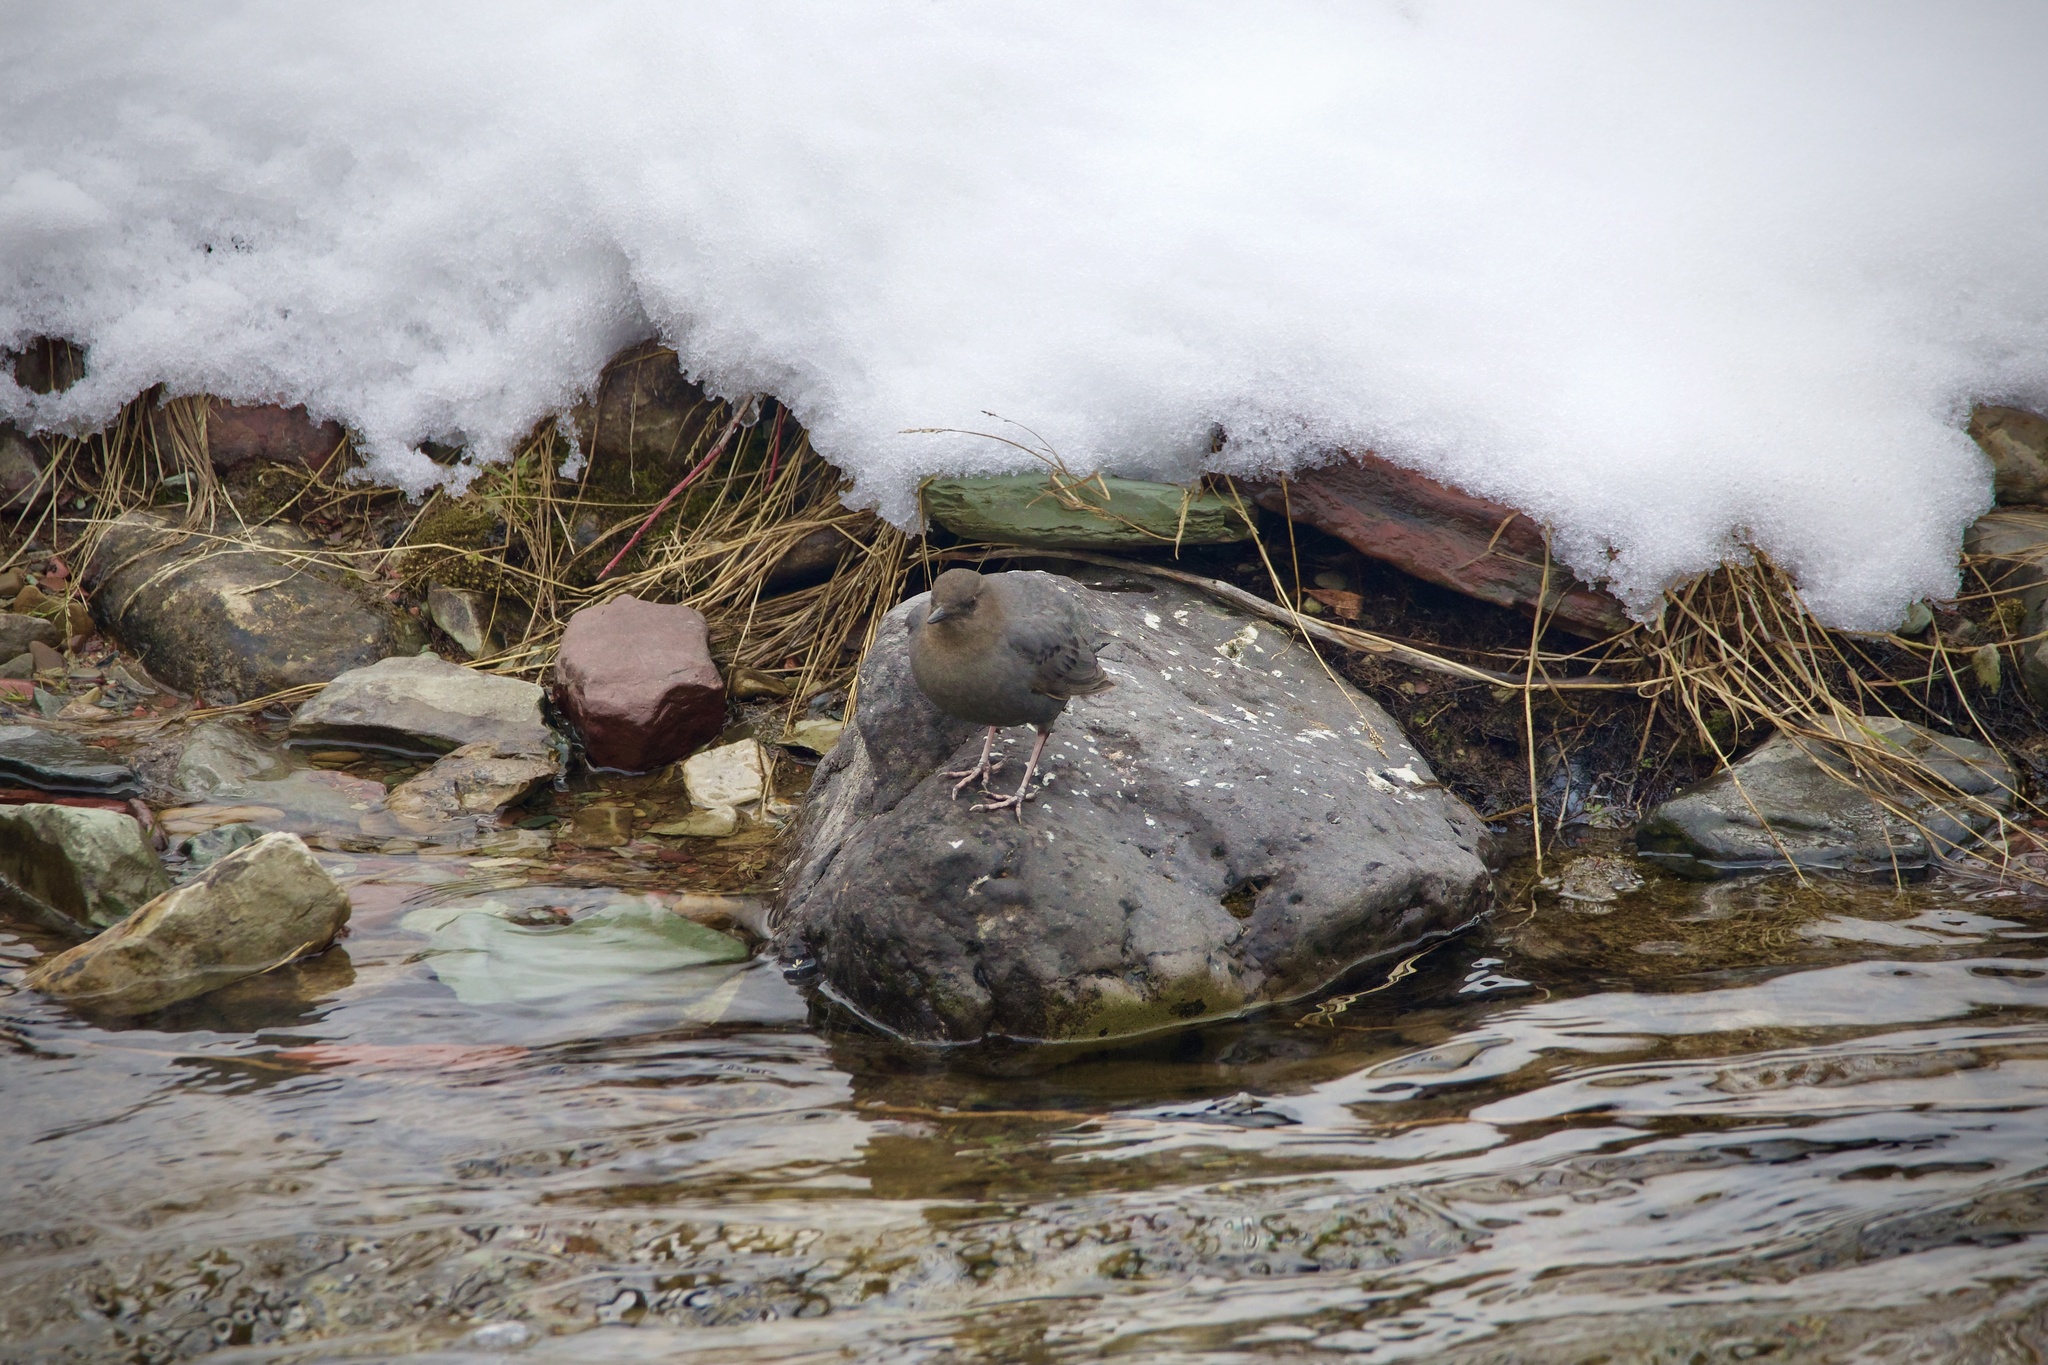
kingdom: Animalia
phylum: Chordata
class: Aves
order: Passeriformes
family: Cinclidae
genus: Cinclus
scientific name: Cinclus mexicanus
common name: American dipper
